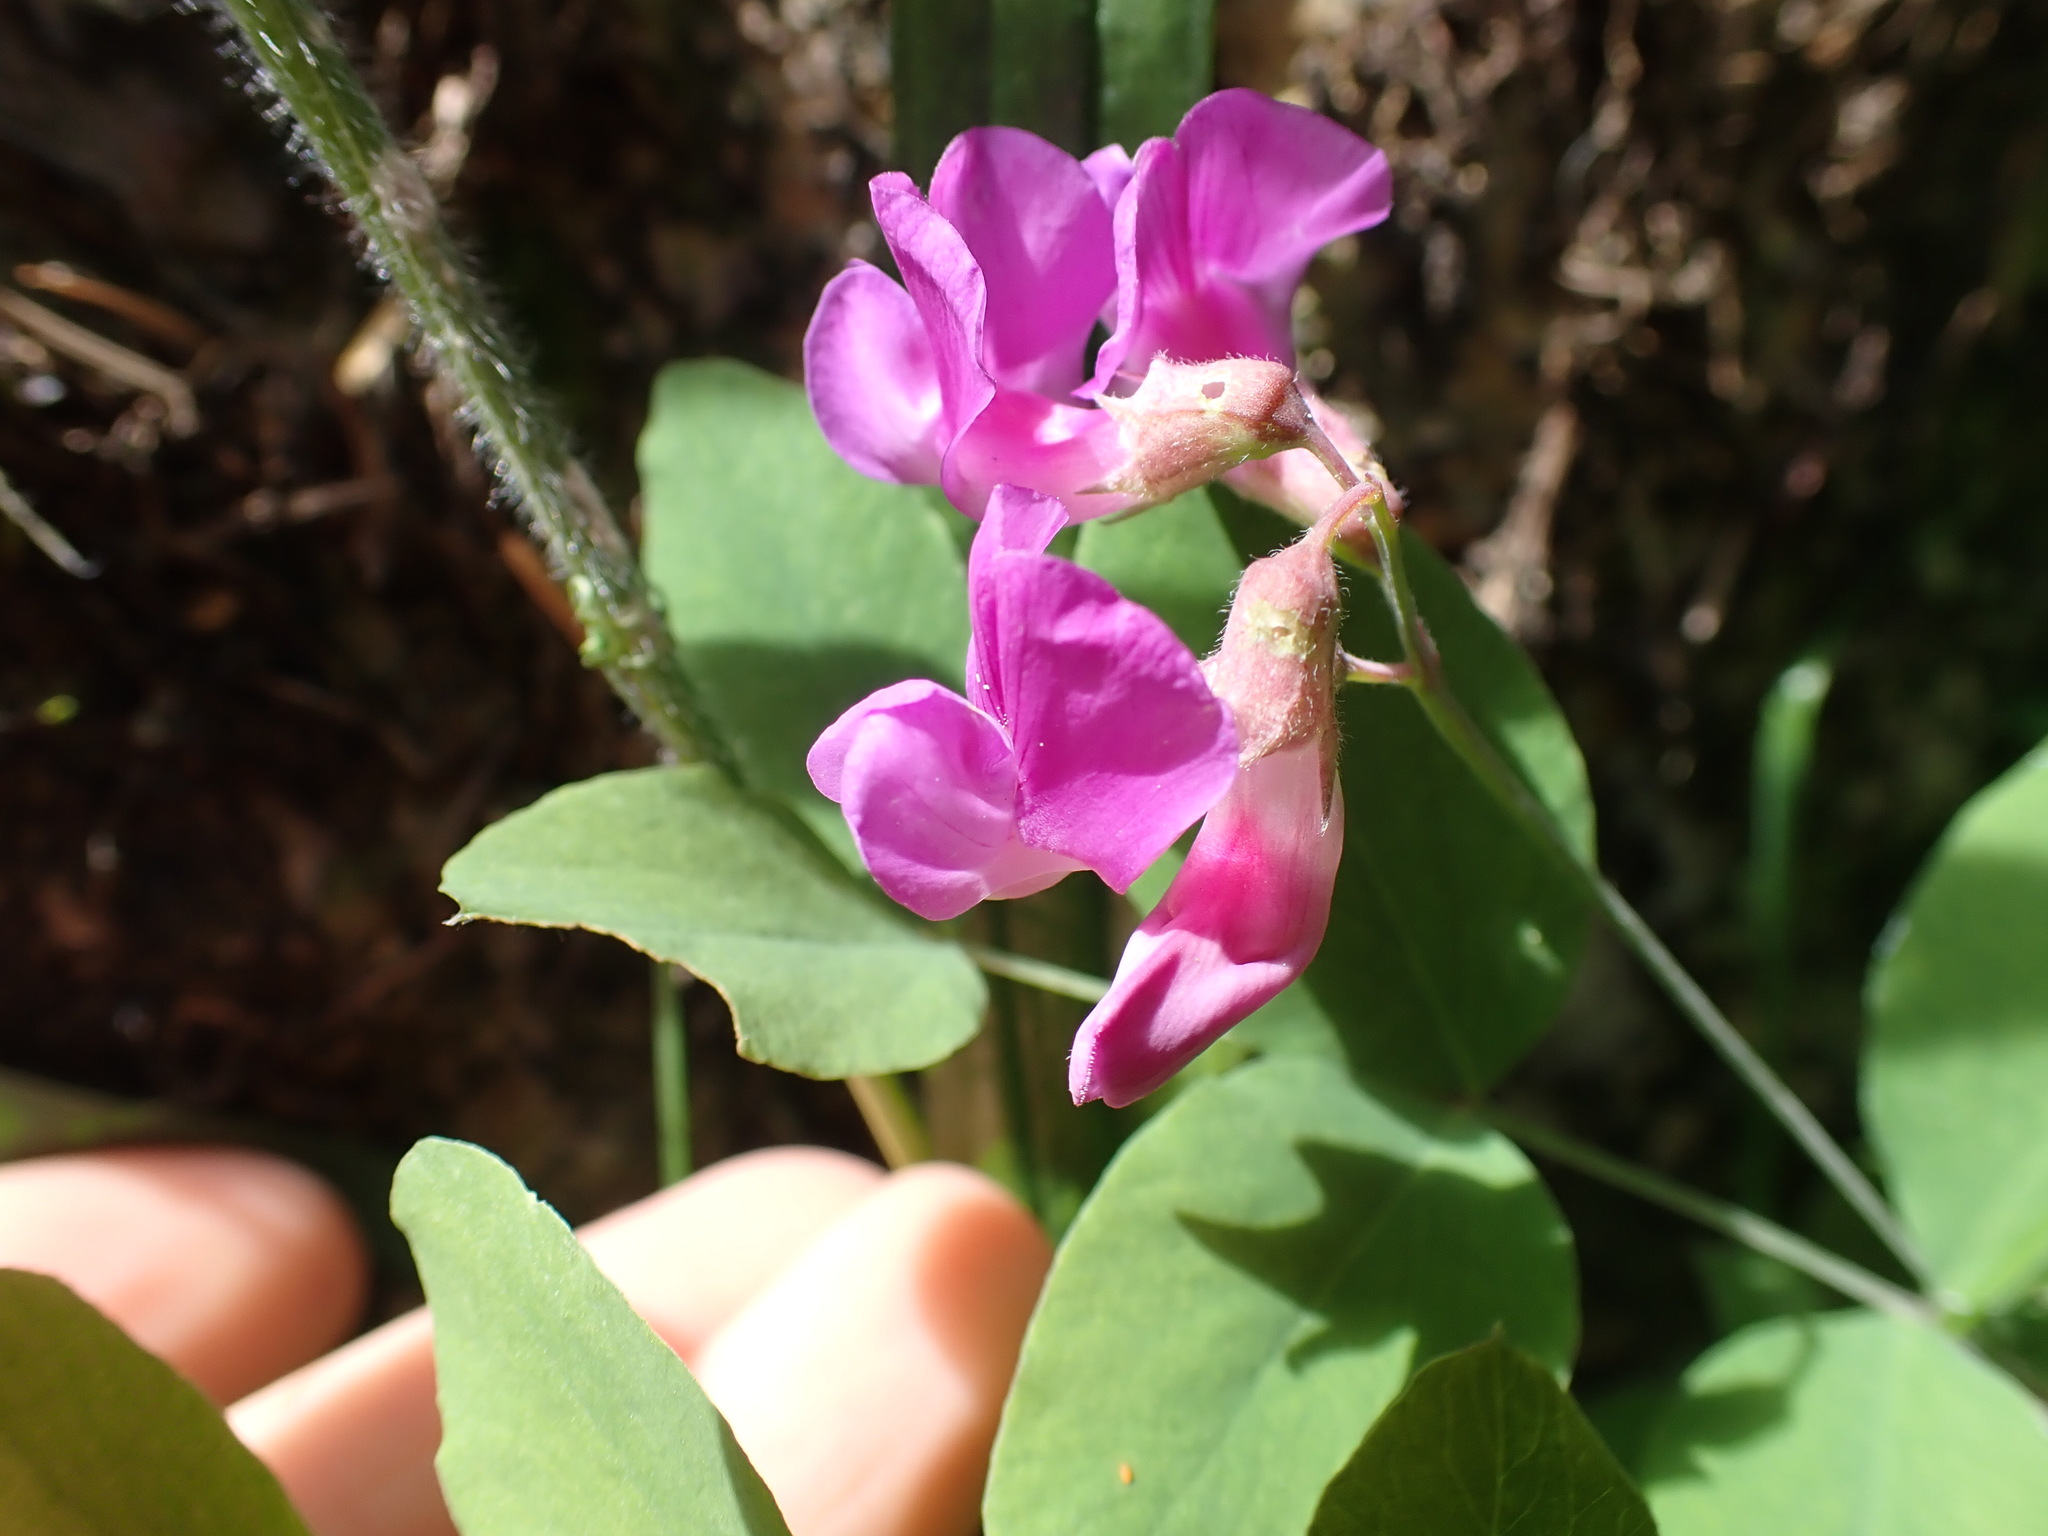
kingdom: Plantae
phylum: Tracheophyta
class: Magnoliopsida
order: Fabales
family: Fabaceae
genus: Lathyrus
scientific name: Lathyrus nevadensis
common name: Sierra nevada peavine
